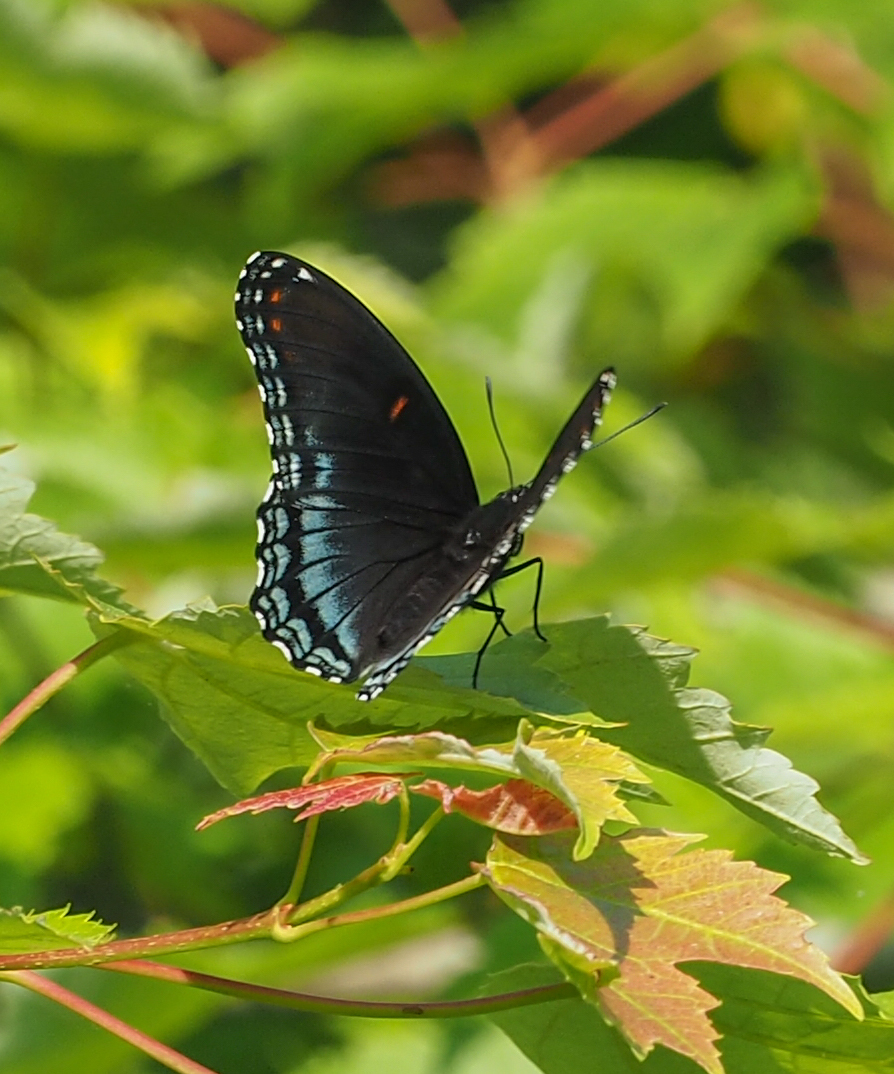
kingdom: Animalia
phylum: Arthropoda
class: Insecta
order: Lepidoptera
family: Nymphalidae
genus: Limenitis
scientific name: Limenitis astyanax
